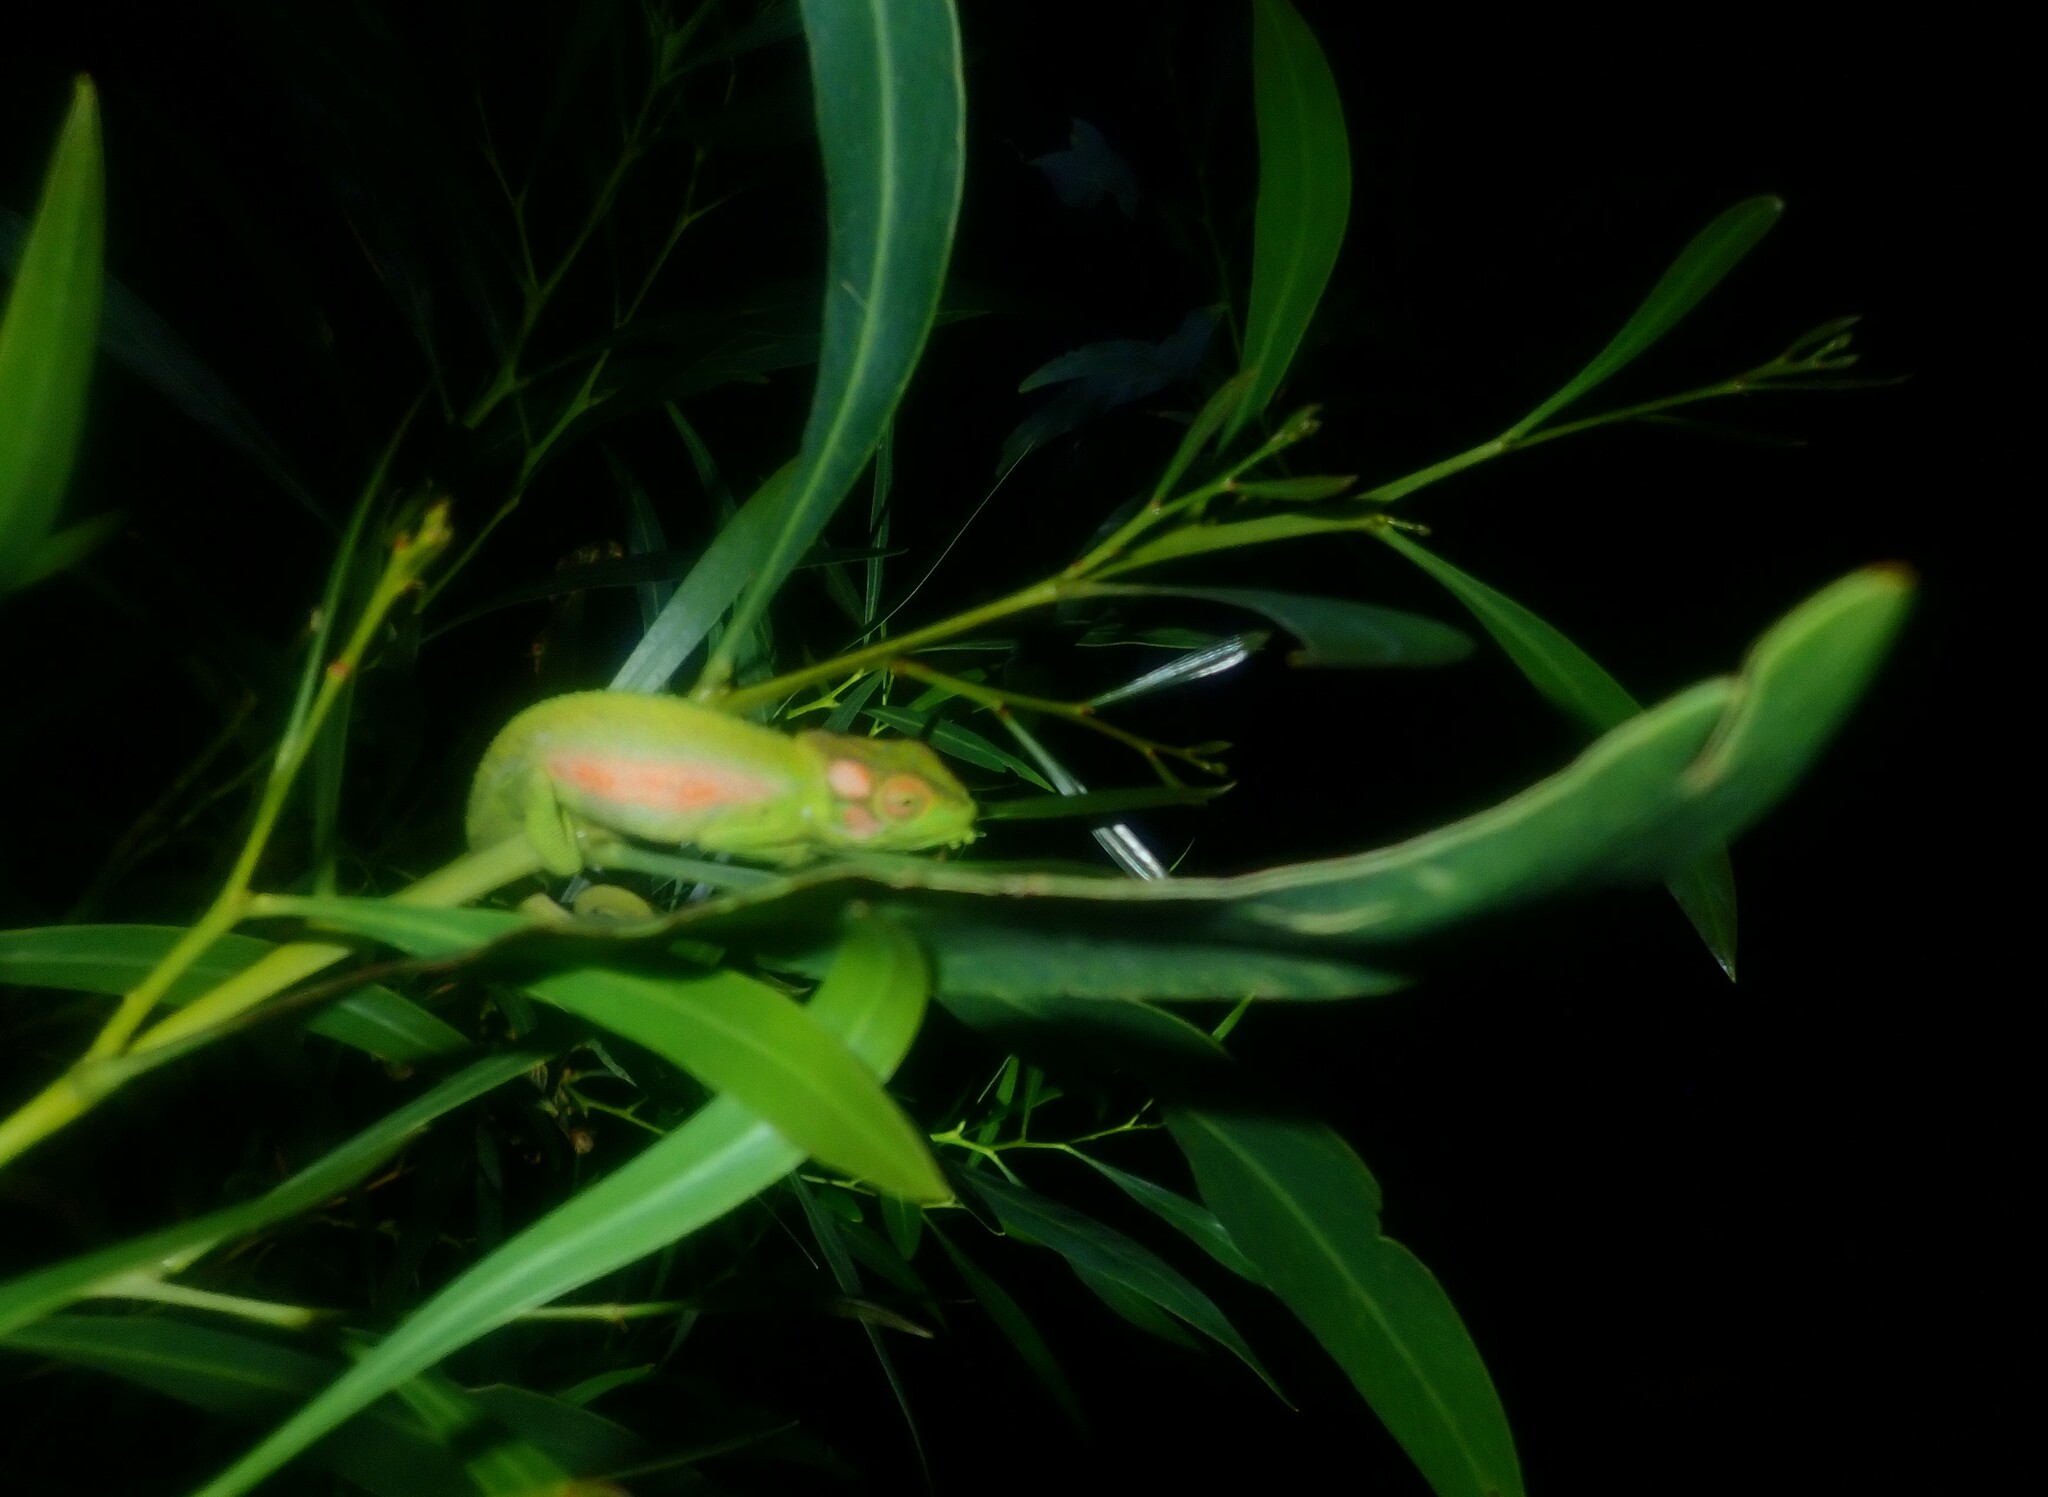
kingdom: Animalia
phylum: Chordata
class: Squamata
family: Chamaeleonidae
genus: Bradypodion
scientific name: Bradypodion pumilum
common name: Cape dwarf chameleon
